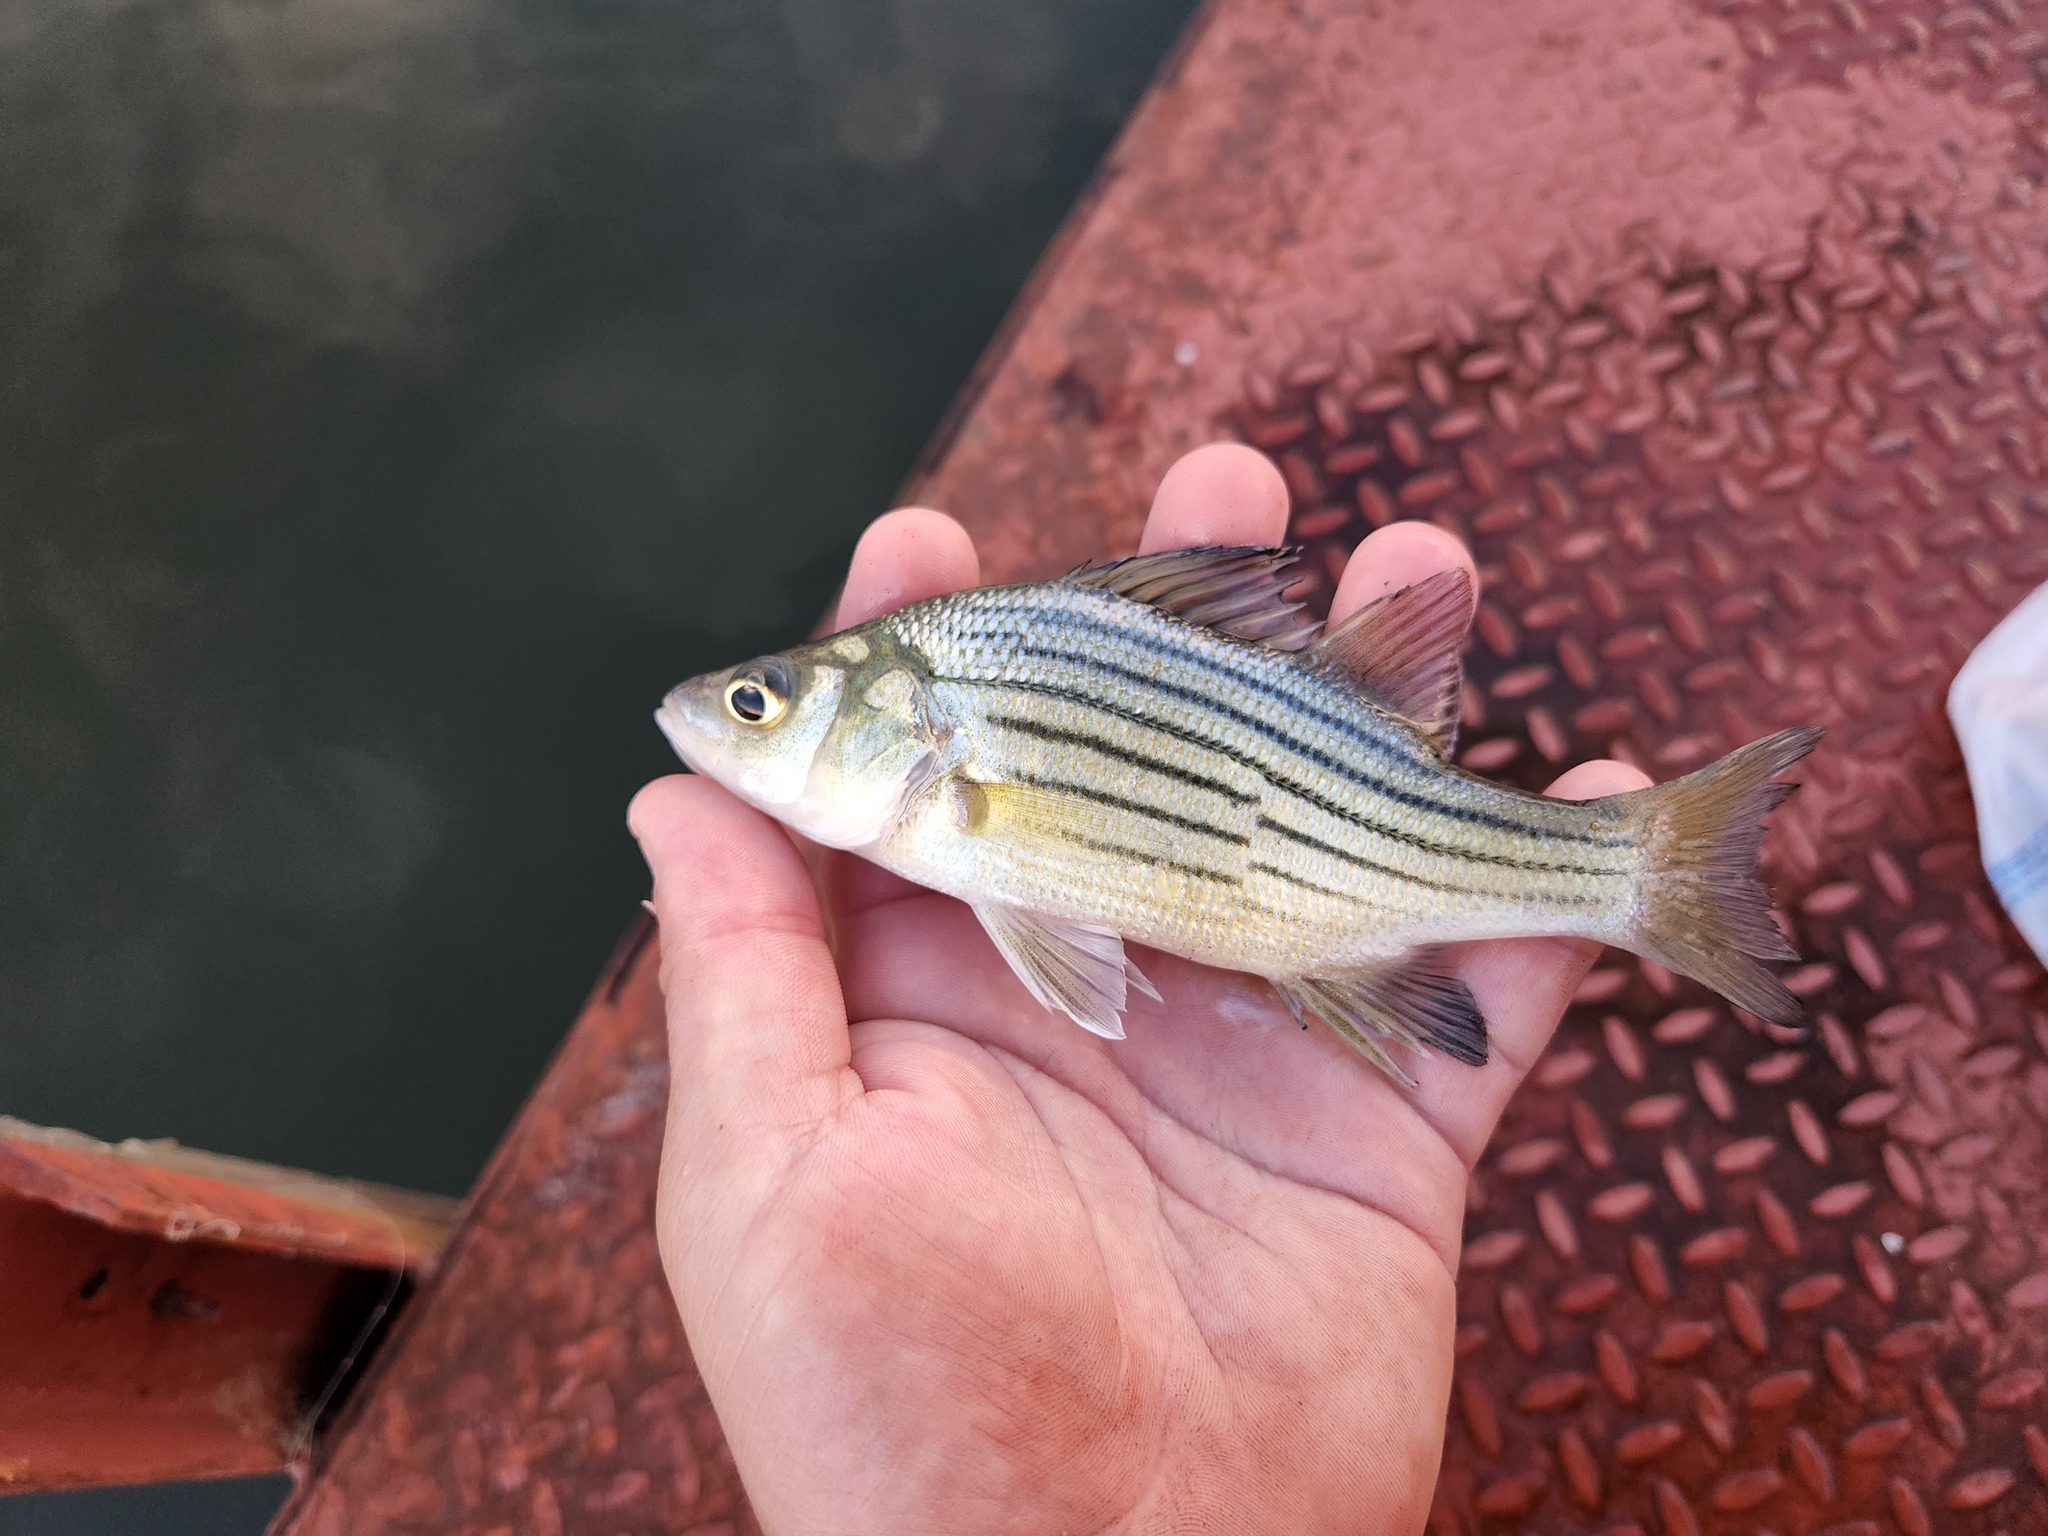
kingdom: Animalia
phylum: Chordata
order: Perciformes
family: Moronidae
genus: Morone
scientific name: Morone mississippiensis
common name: Yellow bass
